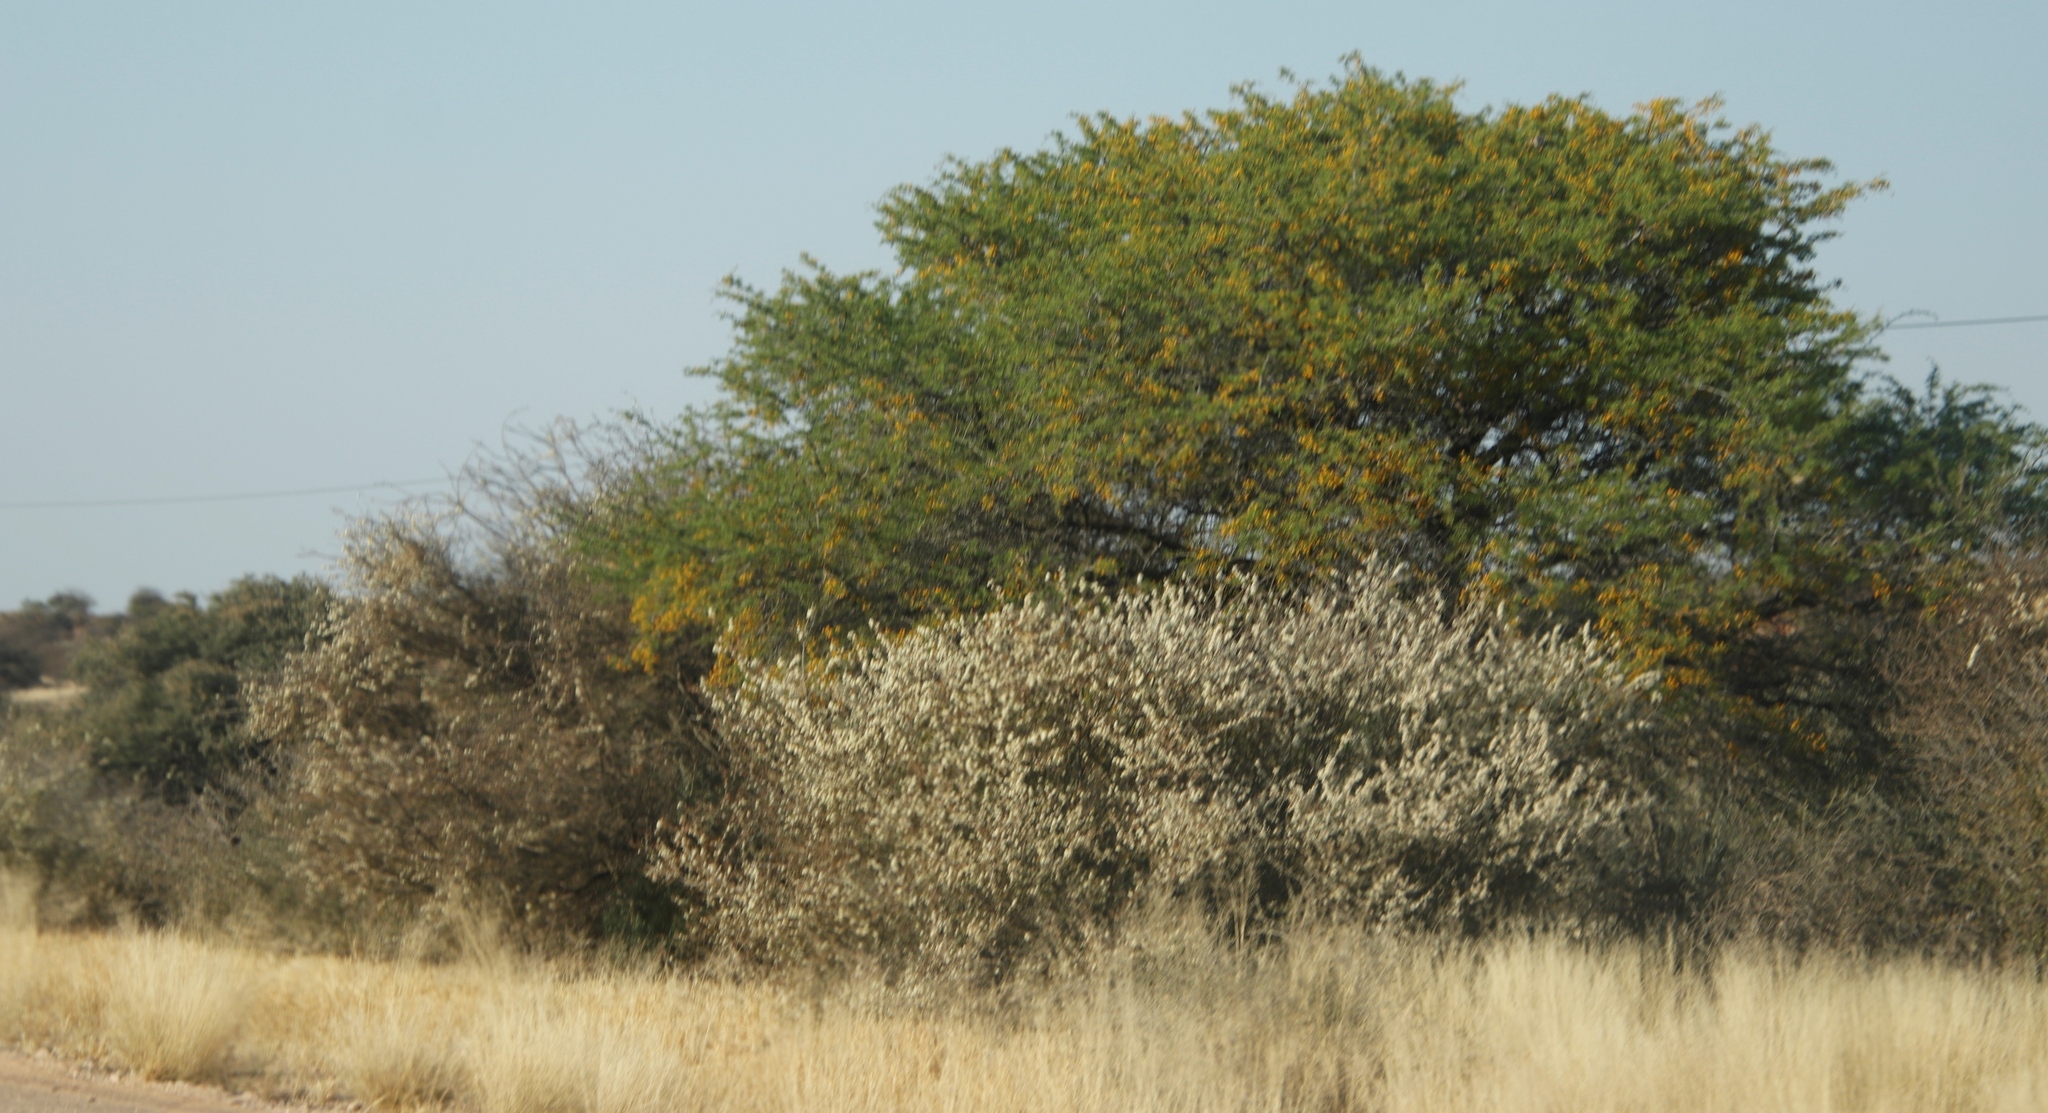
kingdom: Plantae
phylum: Tracheophyta
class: Magnoliopsida
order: Fabales
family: Fabaceae
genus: Senegalia
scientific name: Senegalia mellifera
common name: Hookthorn
